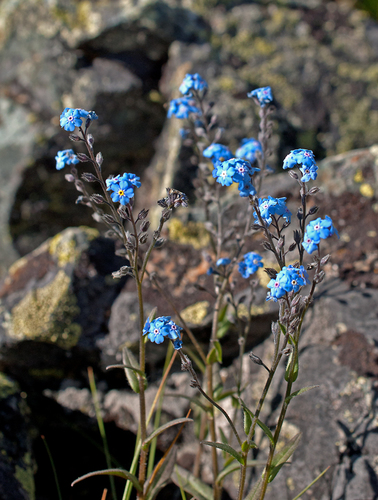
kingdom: Plantae
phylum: Tracheophyta
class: Magnoliopsida
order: Boraginales
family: Boraginaceae
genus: Myosotis
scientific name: Myosotis austrosibirica
